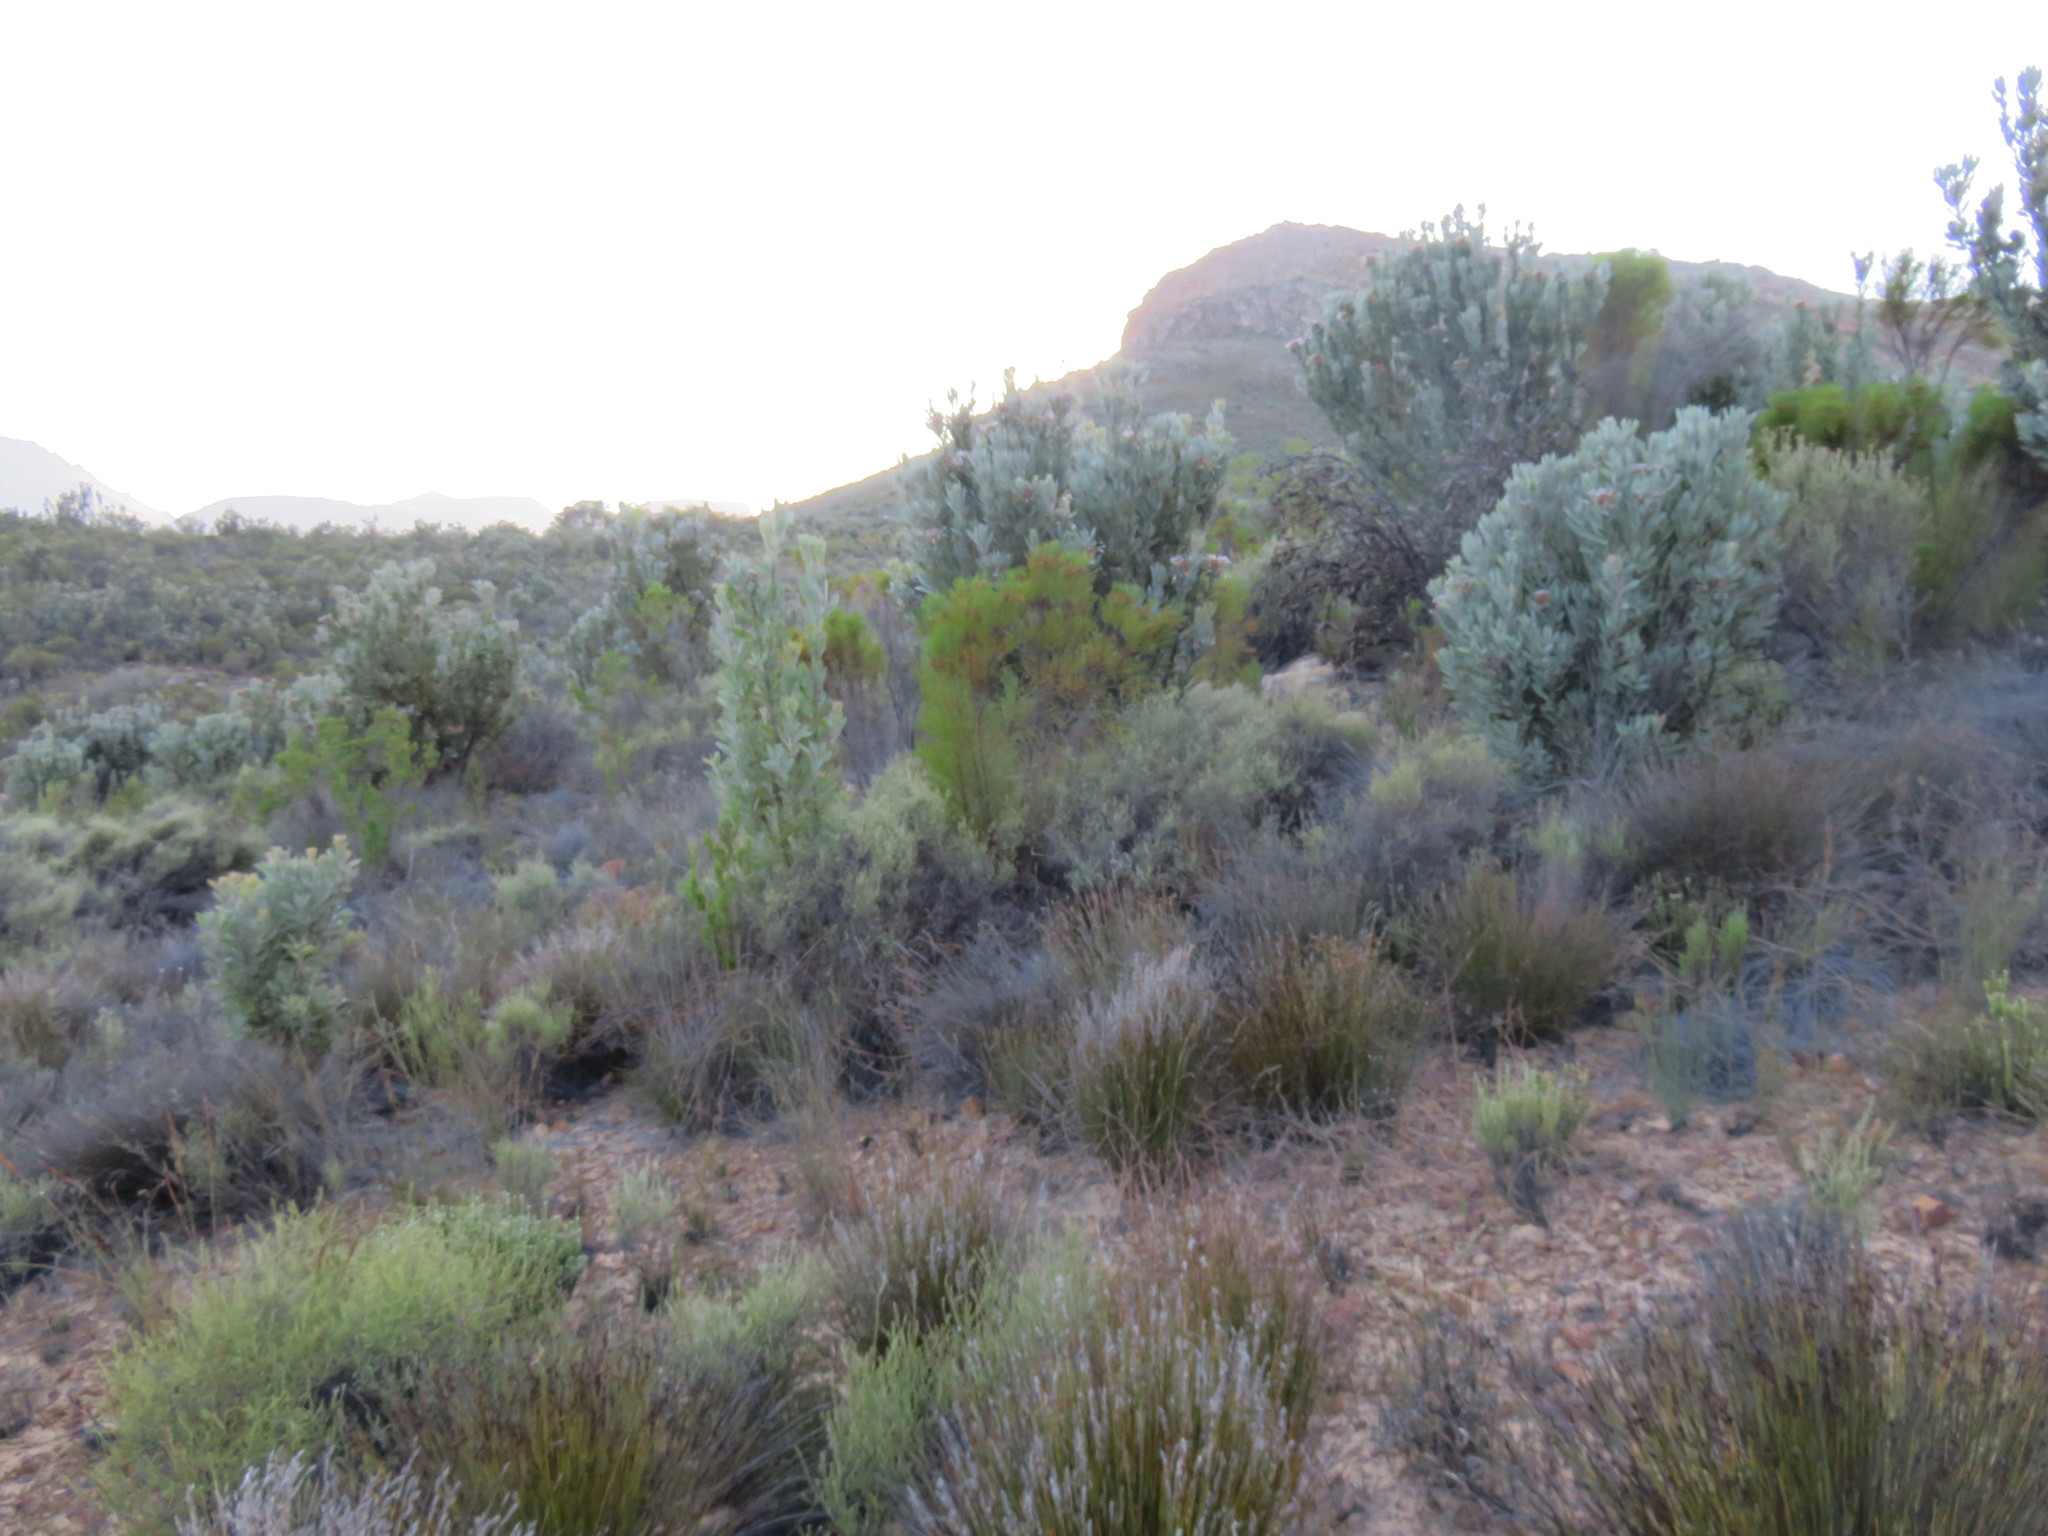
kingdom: Plantae
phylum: Tracheophyta
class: Magnoliopsida
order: Proteales
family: Proteaceae
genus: Protea
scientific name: Protea laurifolia
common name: Grey-leaf sugarbsh
